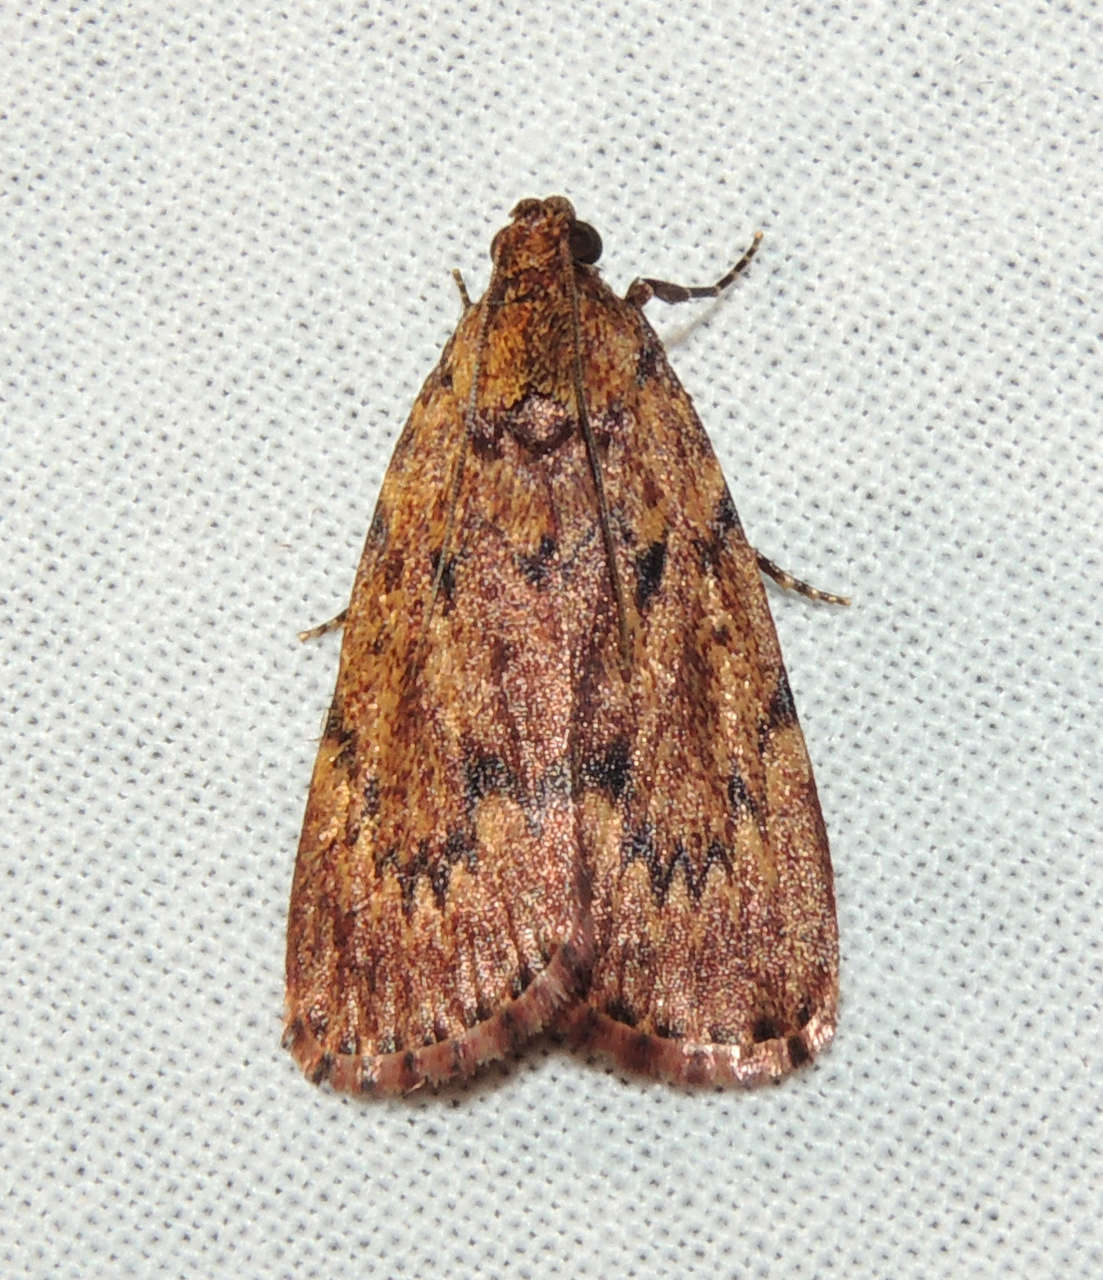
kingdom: Animalia
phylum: Arthropoda
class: Insecta
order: Lepidoptera
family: Pyralidae
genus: Mimaglossa
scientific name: Mimaglossa nauplialis
